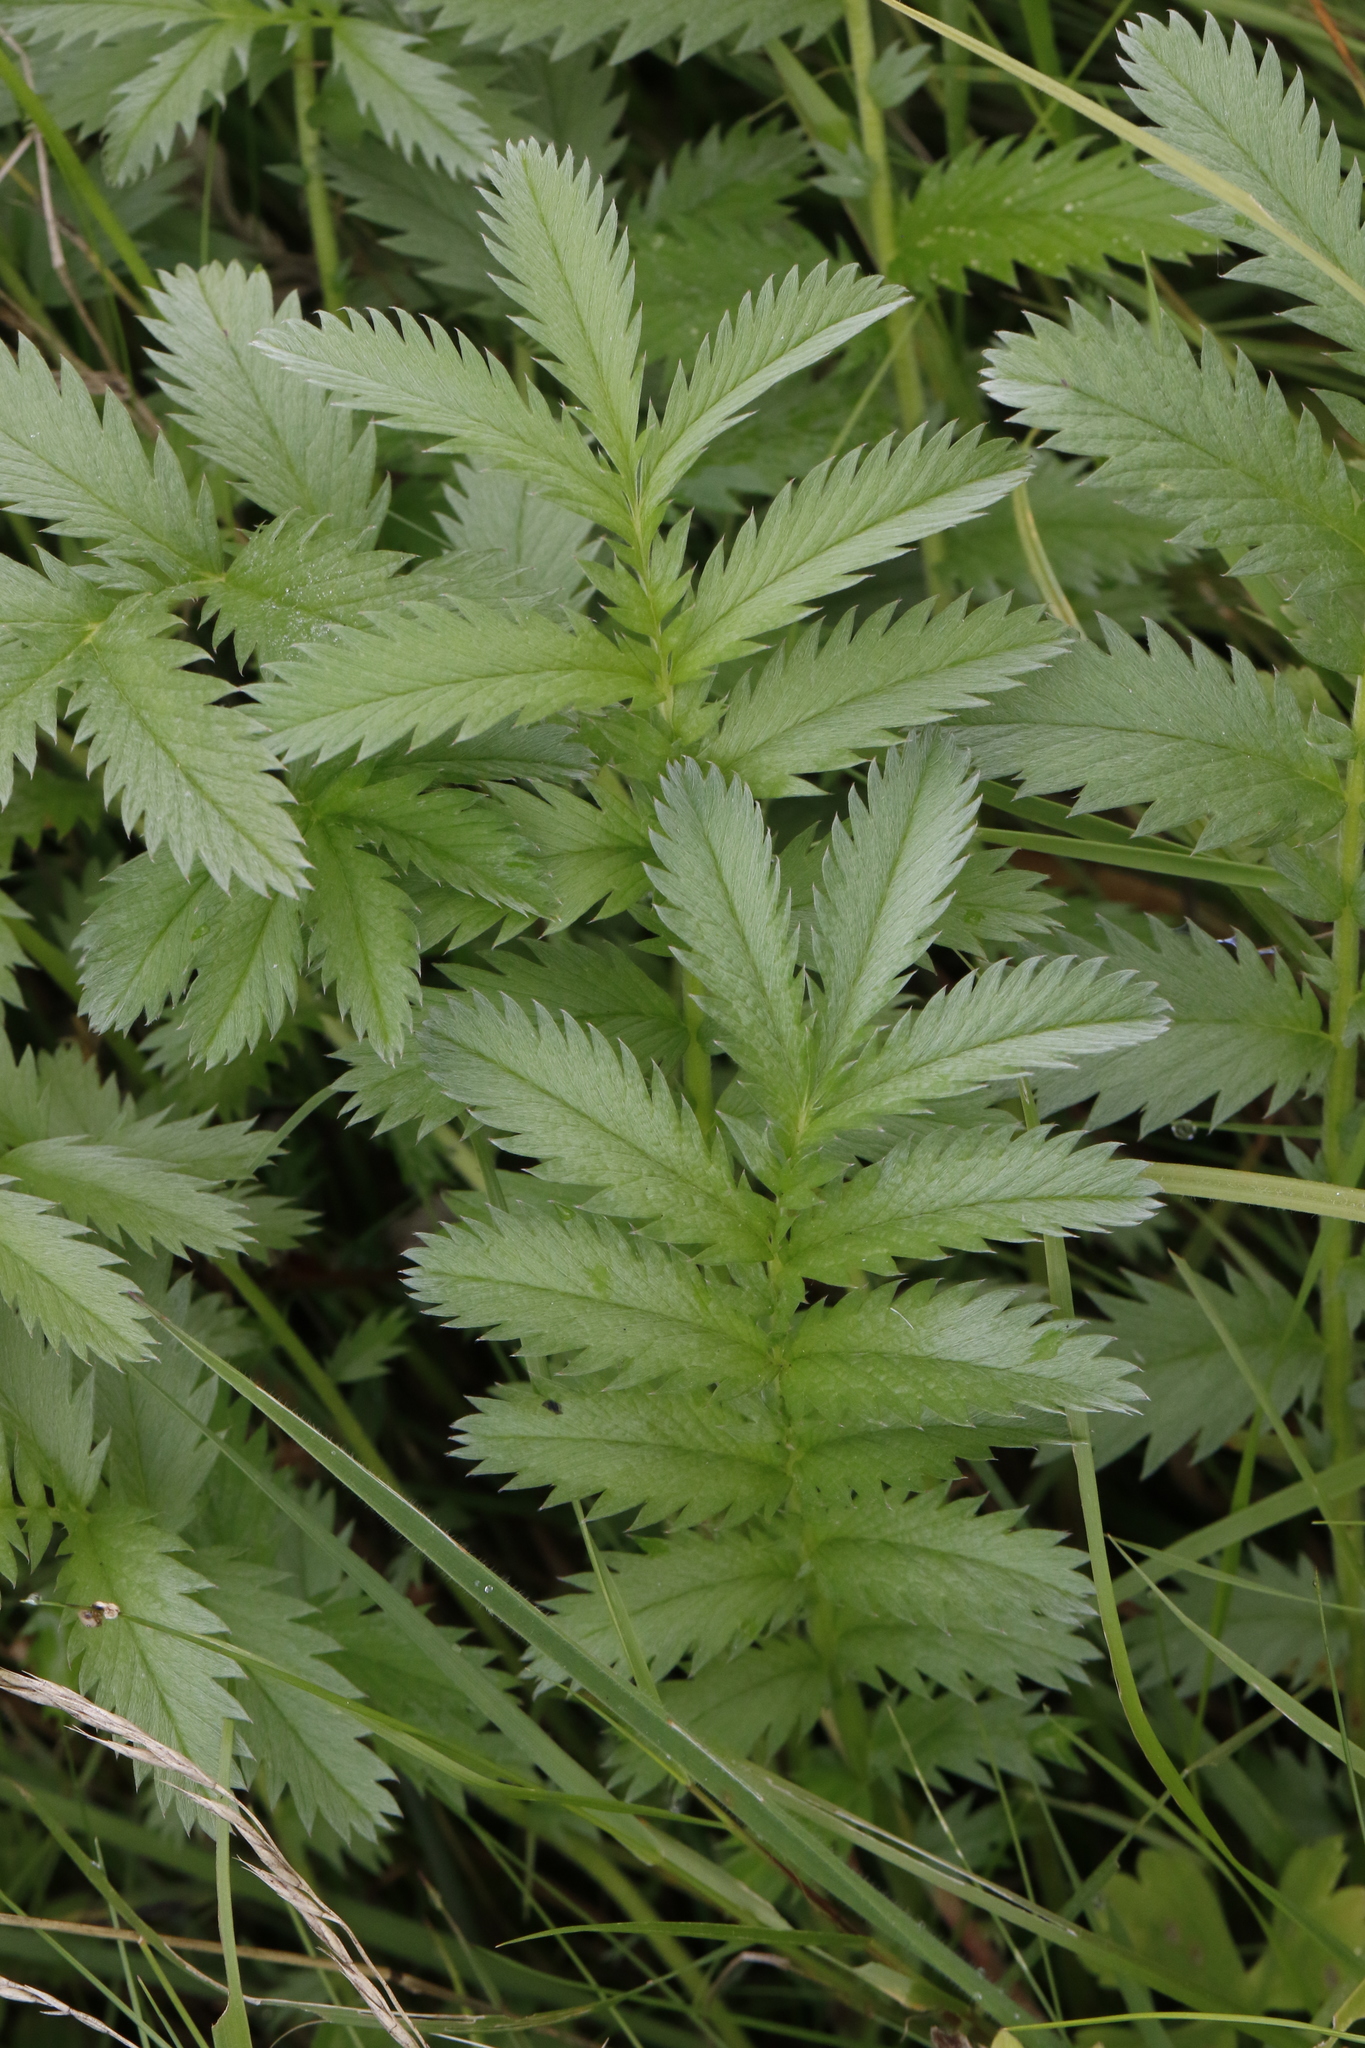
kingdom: Plantae
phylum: Tracheophyta
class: Magnoliopsida
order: Rosales
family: Rosaceae
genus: Argentina
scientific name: Argentina anserina
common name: Common silverweed
